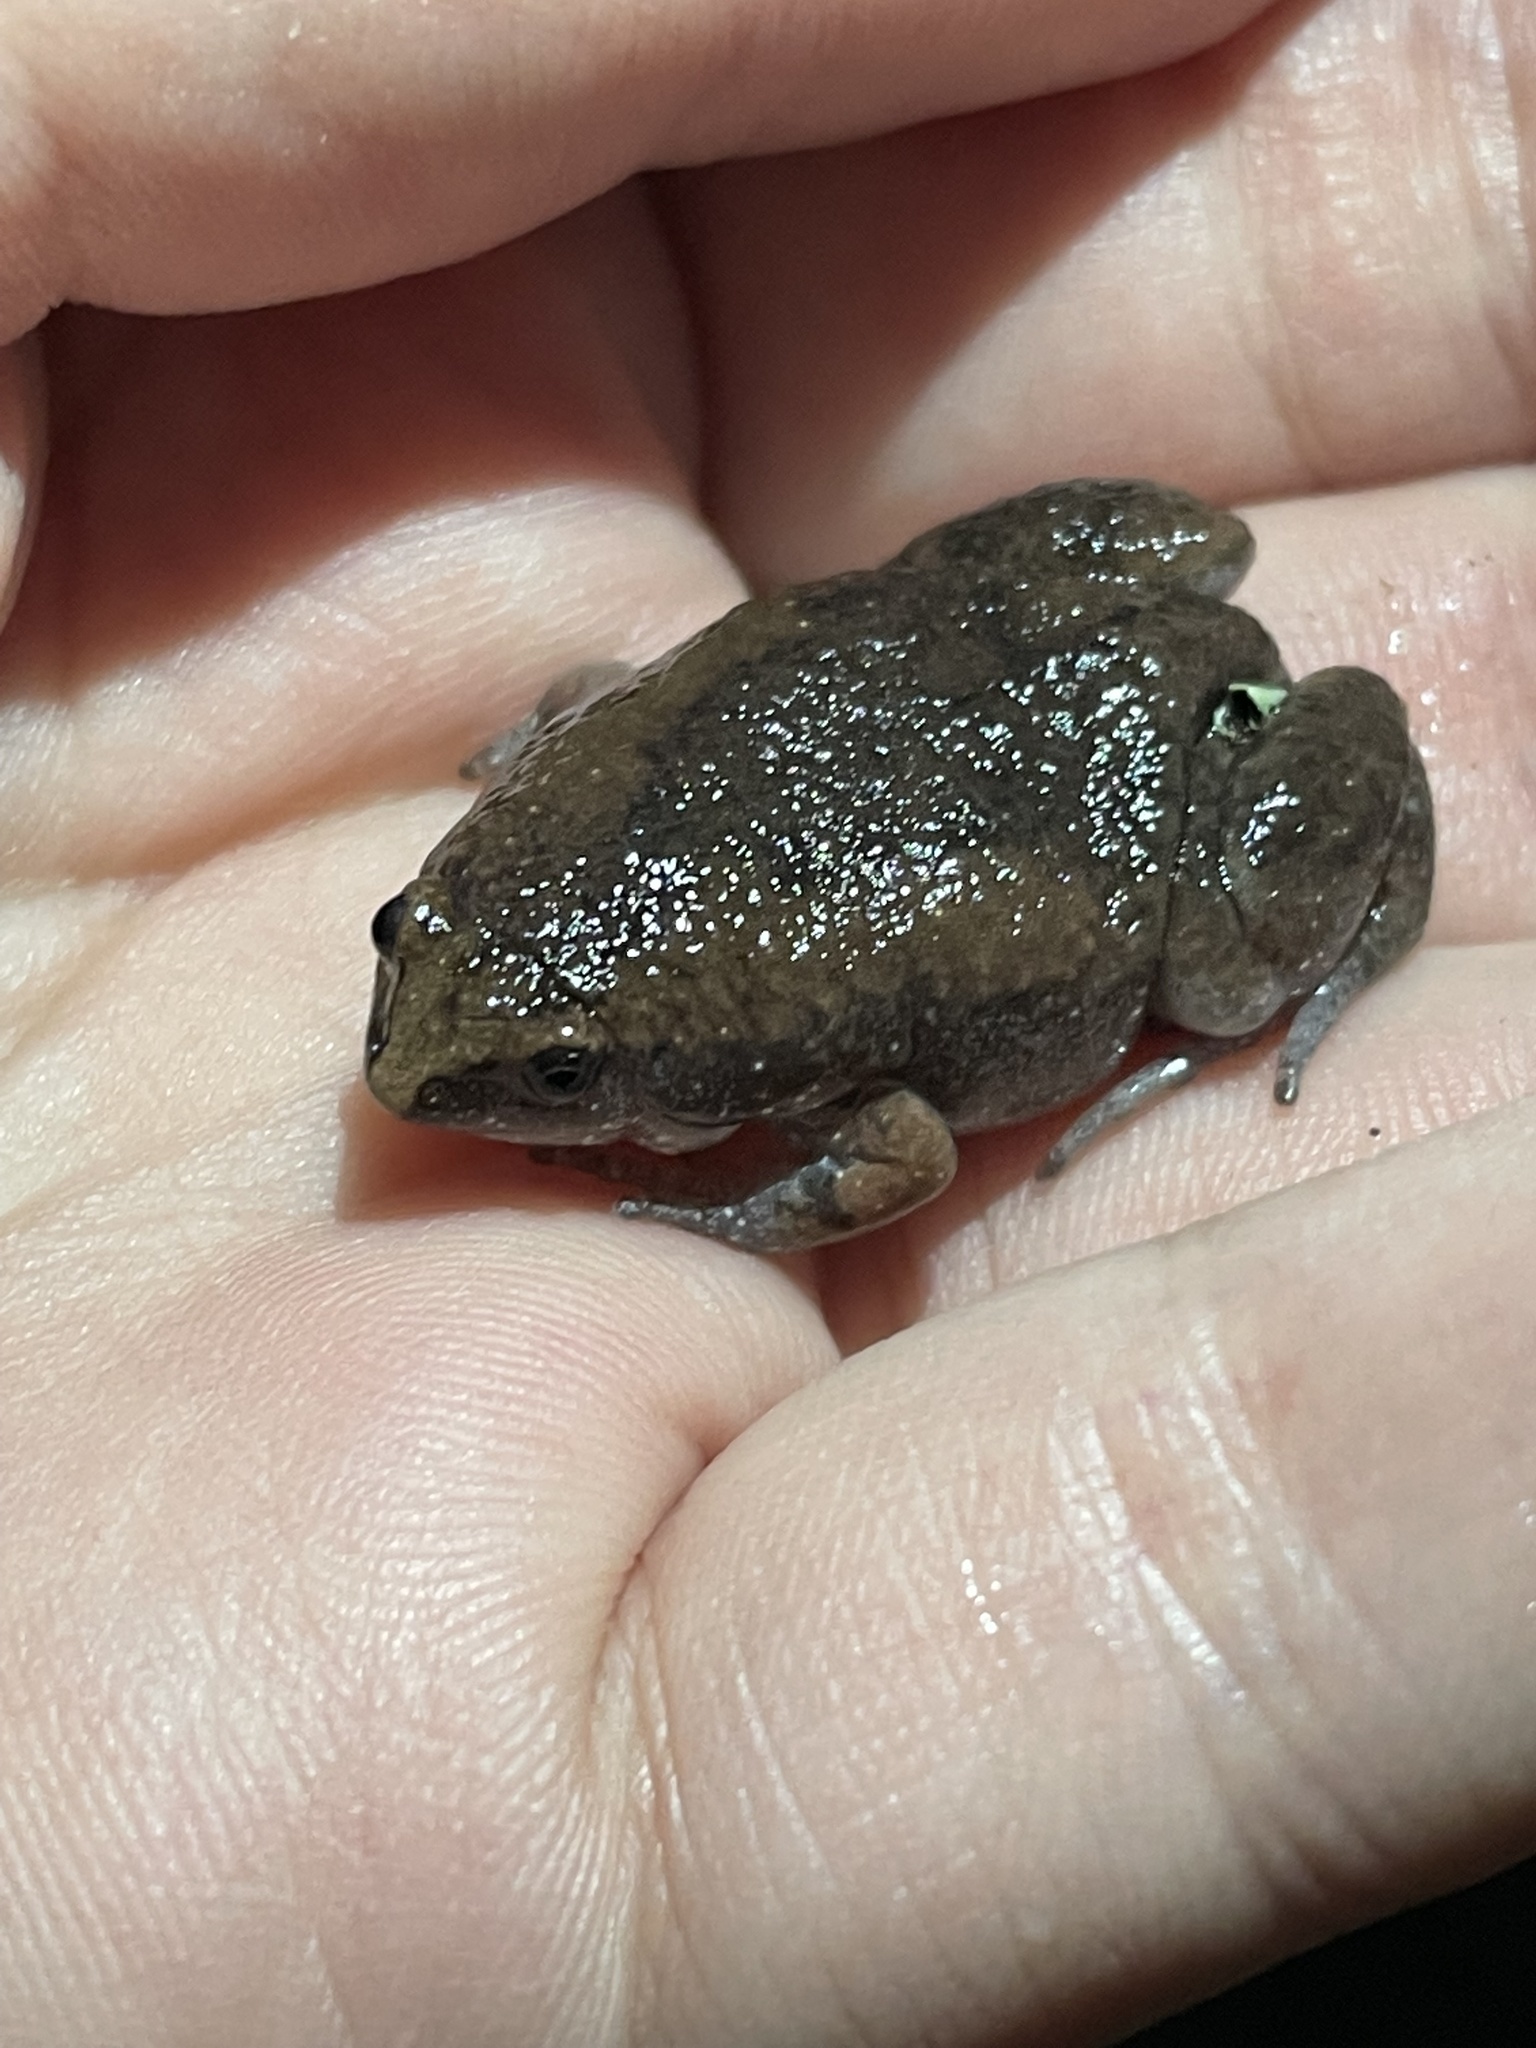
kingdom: Animalia
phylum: Chordata
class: Amphibia
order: Anura
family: Microhylidae
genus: Gastrophryne
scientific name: Gastrophryne carolinensis
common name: Eastern narrowmouth toad
